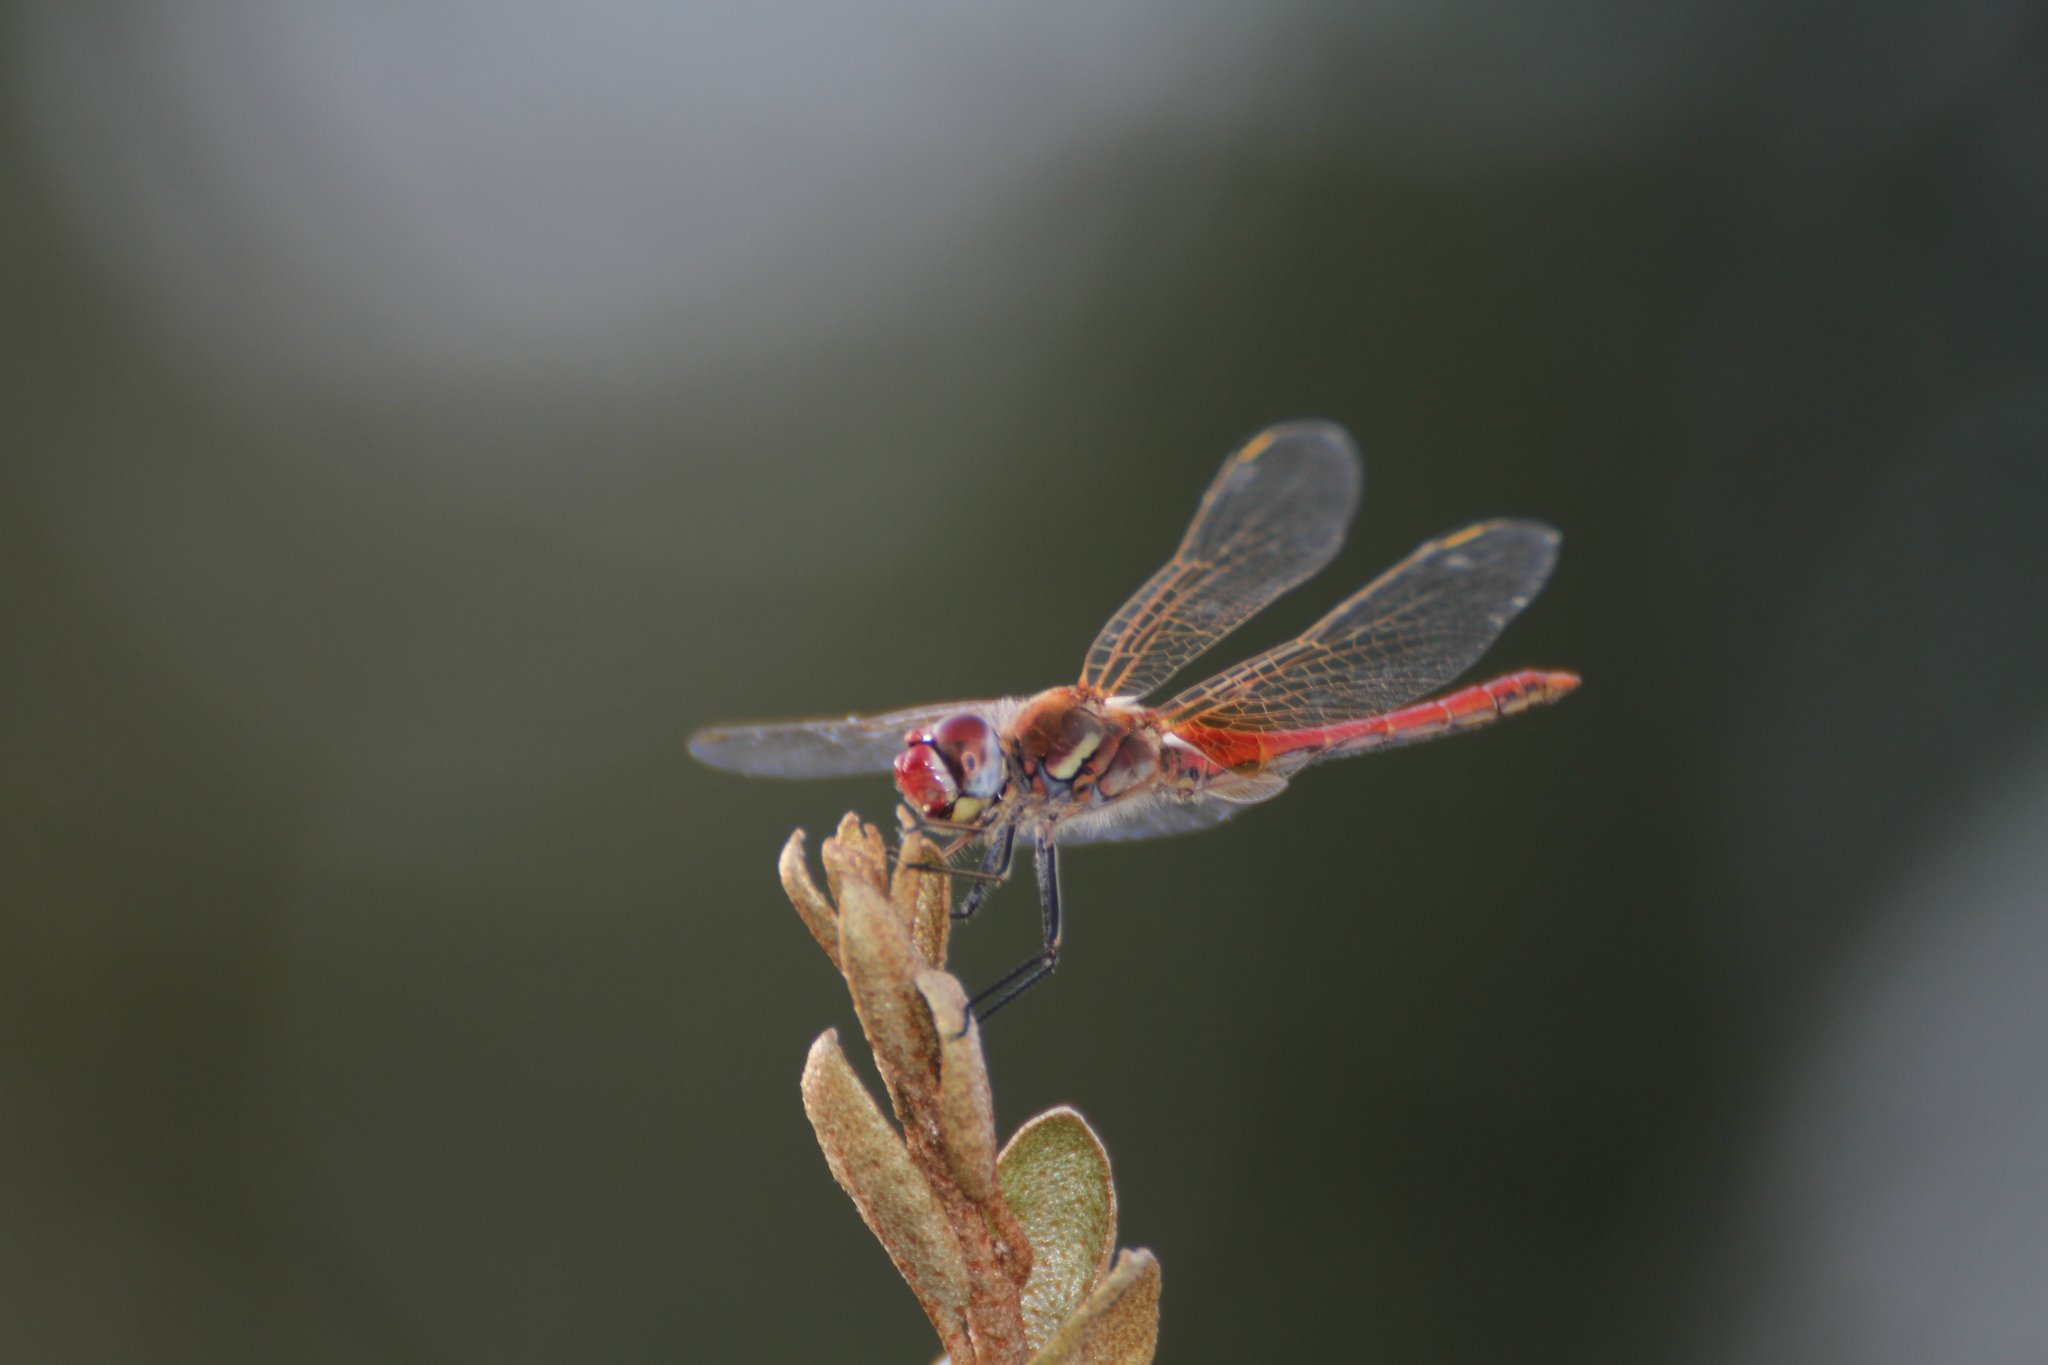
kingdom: Animalia
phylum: Arthropoda
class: Insecta
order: Odonata
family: Libellulidae
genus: Sympetrum
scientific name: Sympetrum fonscolombii
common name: Red-veined darter
